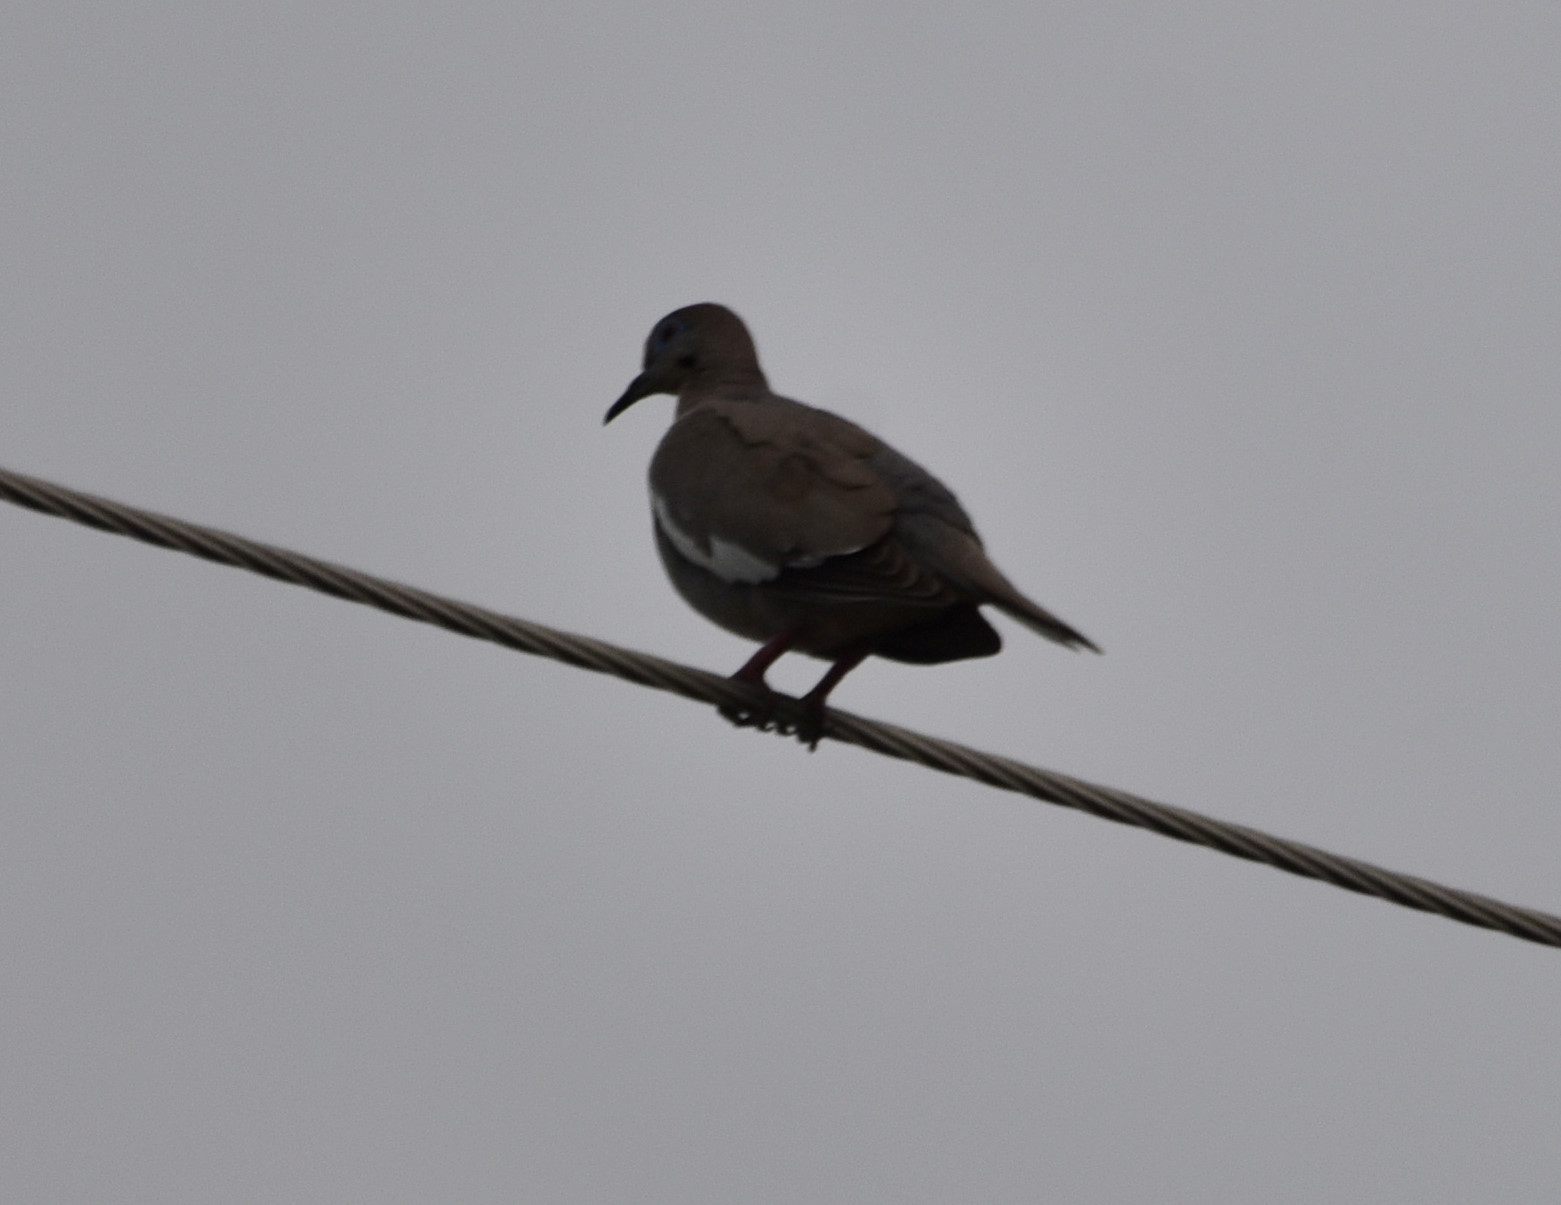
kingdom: Animalia
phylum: Chordata
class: Aves
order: Columbiformes
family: Columbidae
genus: Zenaida
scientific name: Zenaida asiatica
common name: White-winged dove
